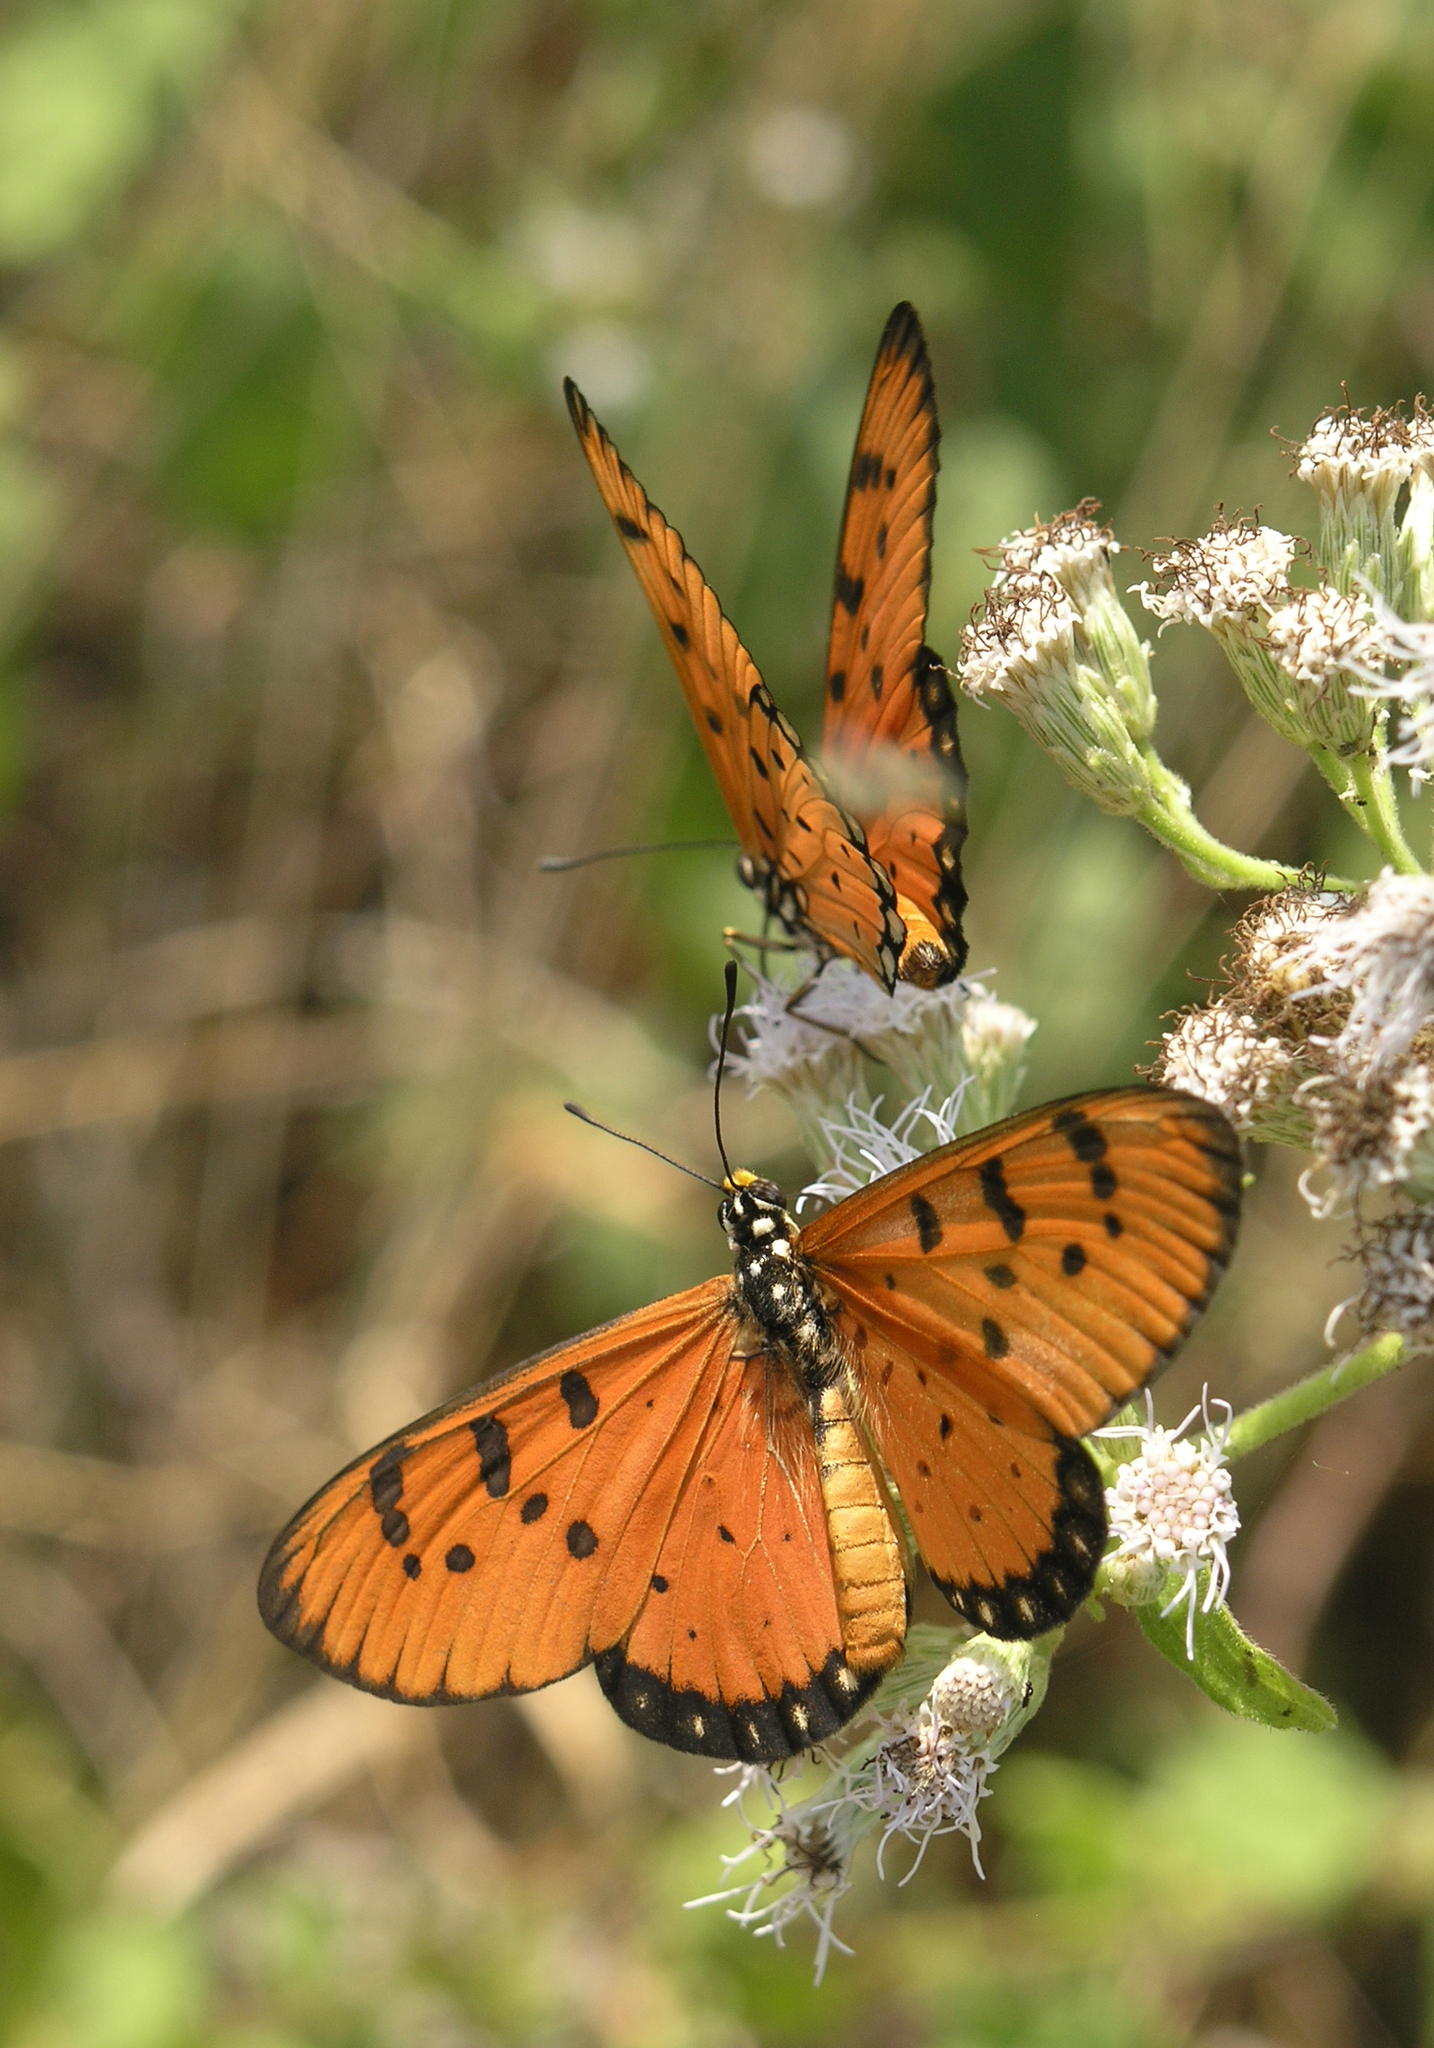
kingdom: Animalia
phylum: Arthropoda
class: Insecta
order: Lepidoptera
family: Nymphalidae
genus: Acraea
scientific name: Acraea terpsicore
